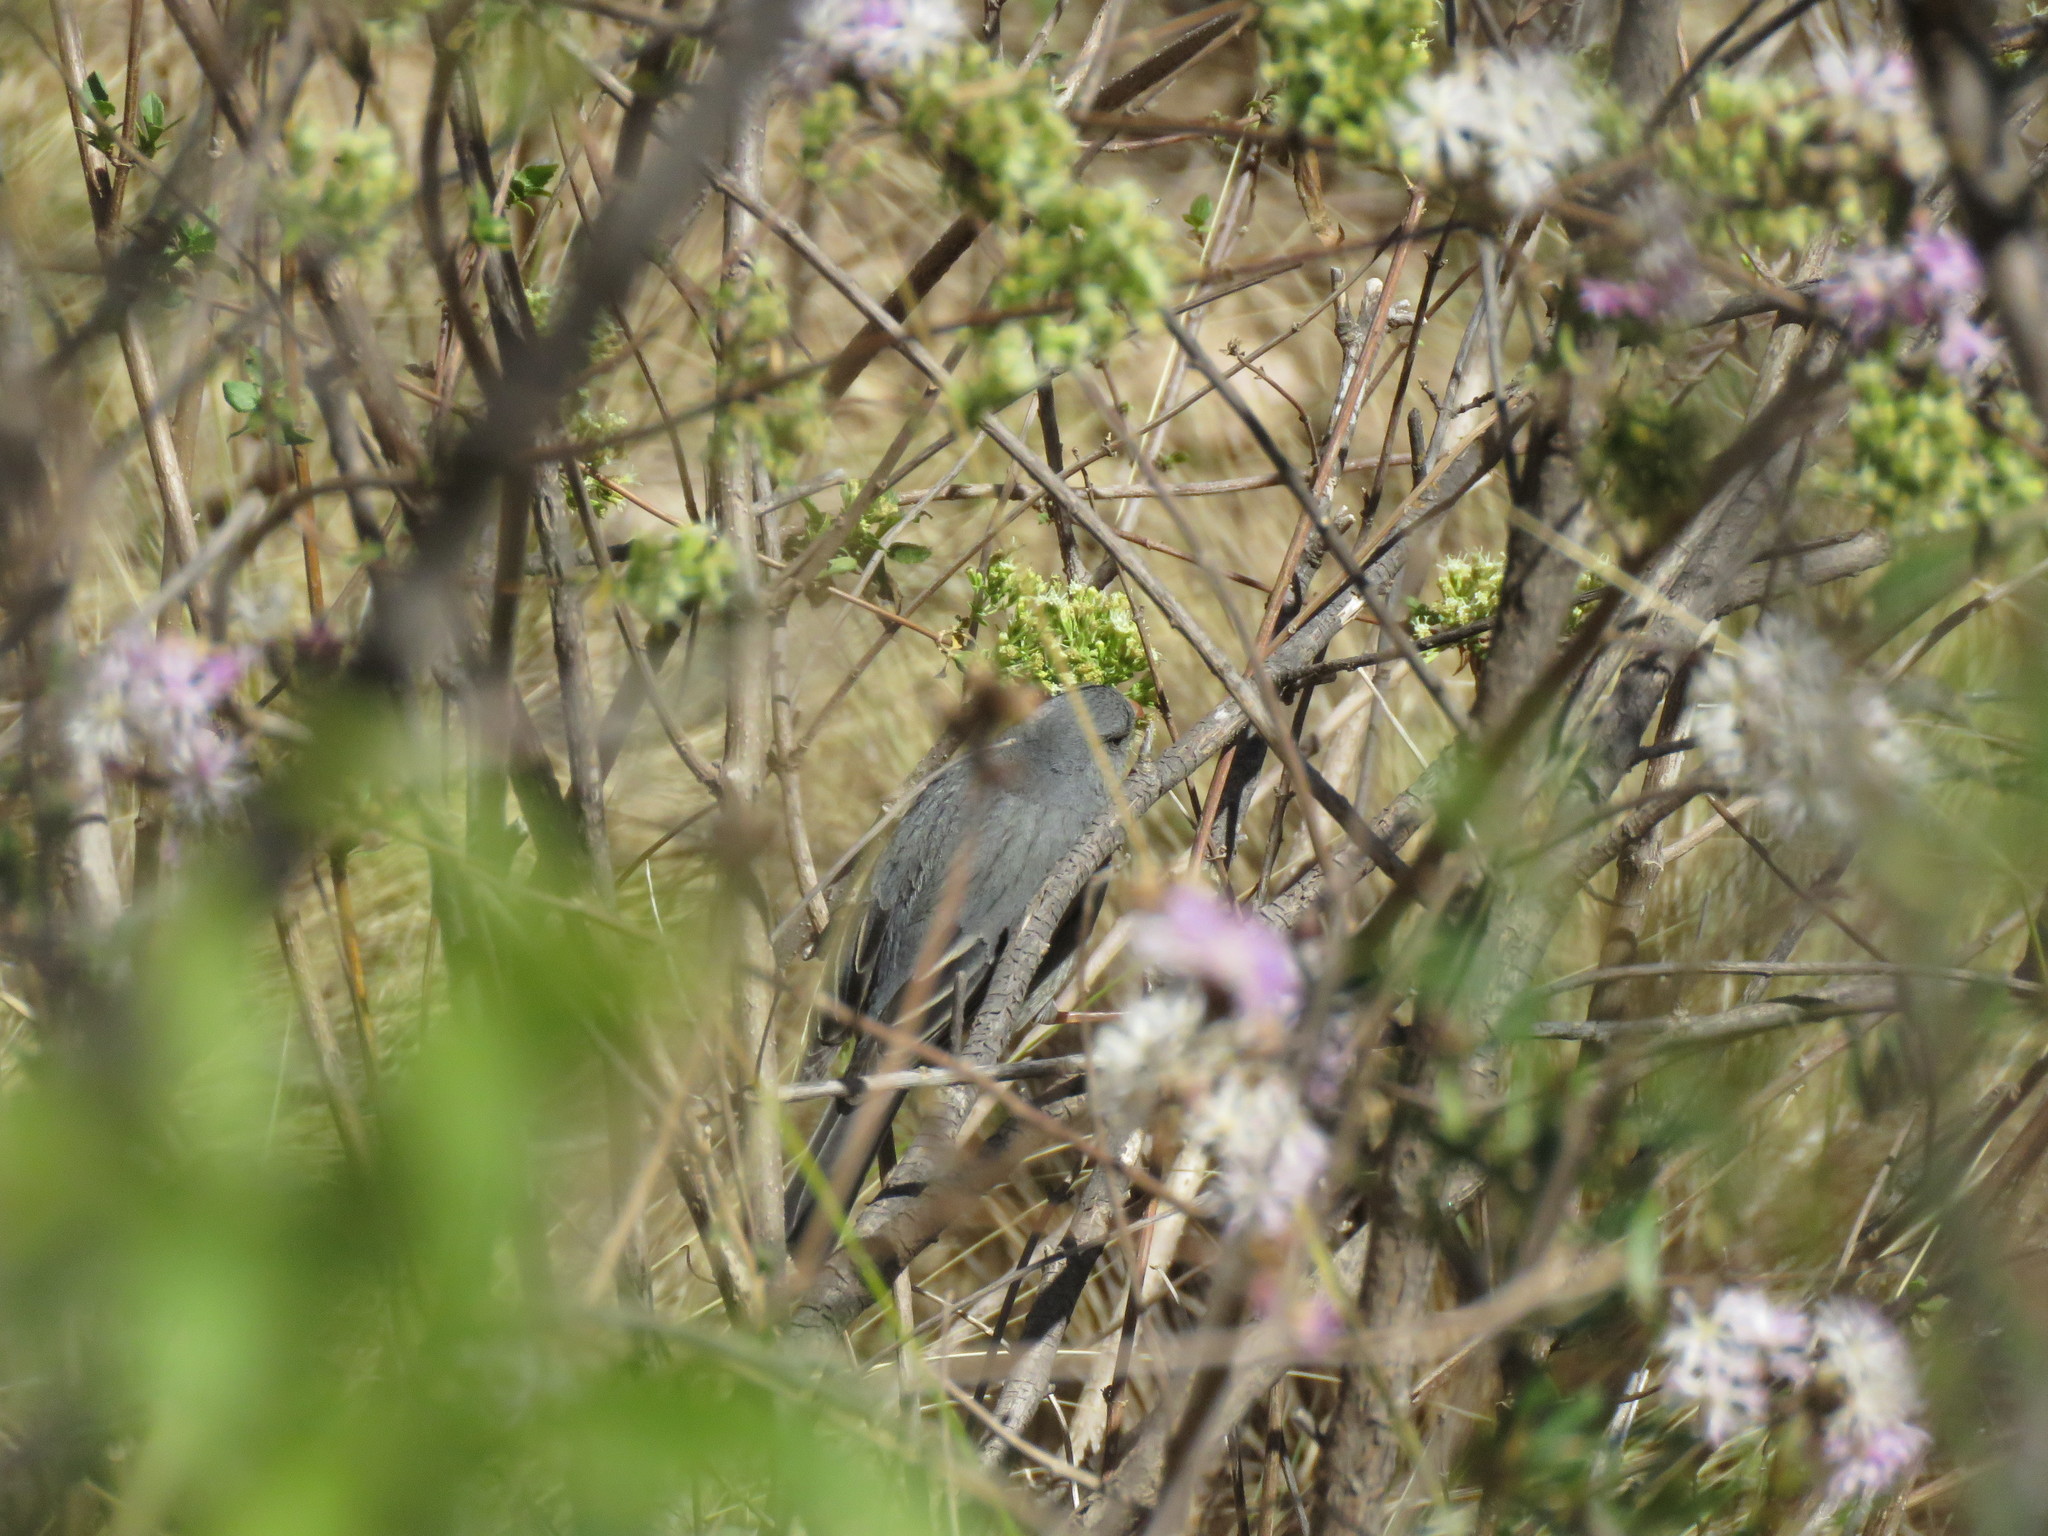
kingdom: Animalia
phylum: Chordata
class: Aves
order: Passeriformes
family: Thraupidae
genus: Catamenia
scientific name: Catamenia inornata
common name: Plain-colored seedeater
